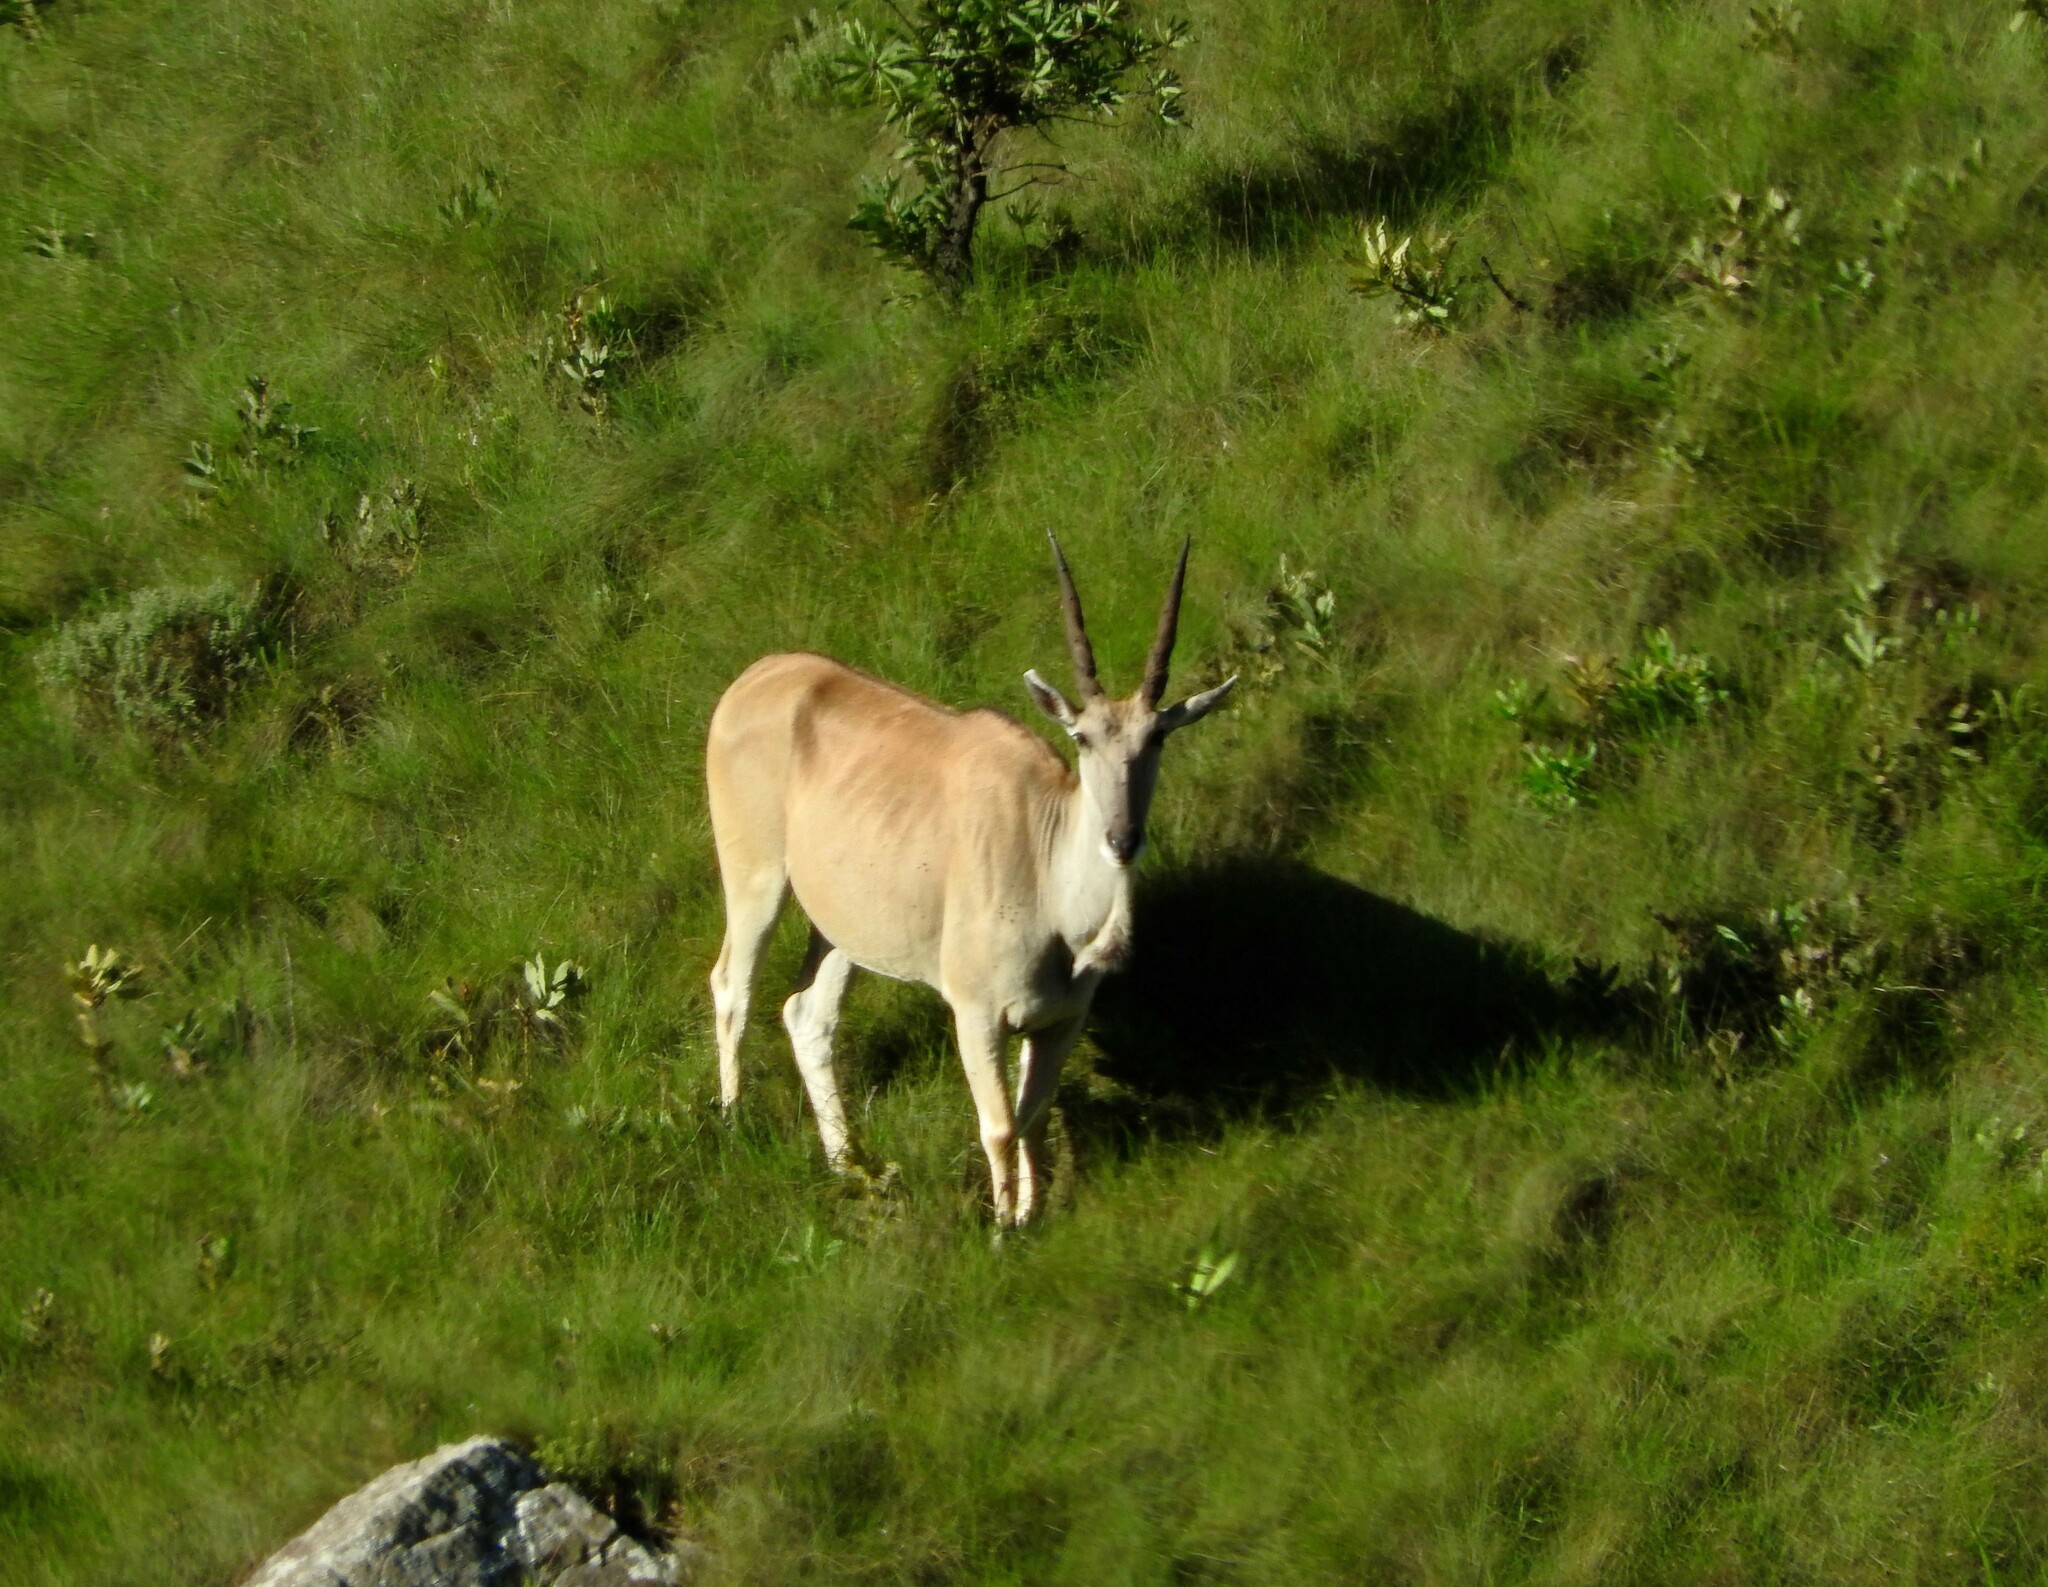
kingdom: Animalia
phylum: Chordata
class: Mammalia
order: Artiodactyla
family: Bovidae
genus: Taurotragus
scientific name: Taurotragus oryx
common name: Common eland
